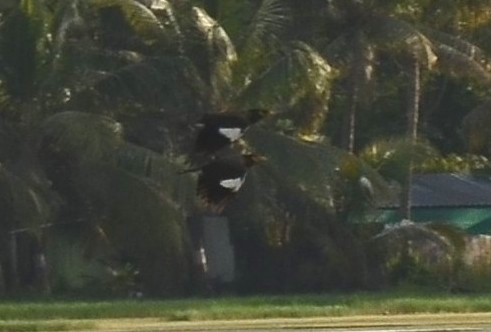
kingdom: Animalia
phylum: Chordata
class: Aves
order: Passeriformes
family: Sturnidae
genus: Acridotheres
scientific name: Acridotheres tristis
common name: Common myna
